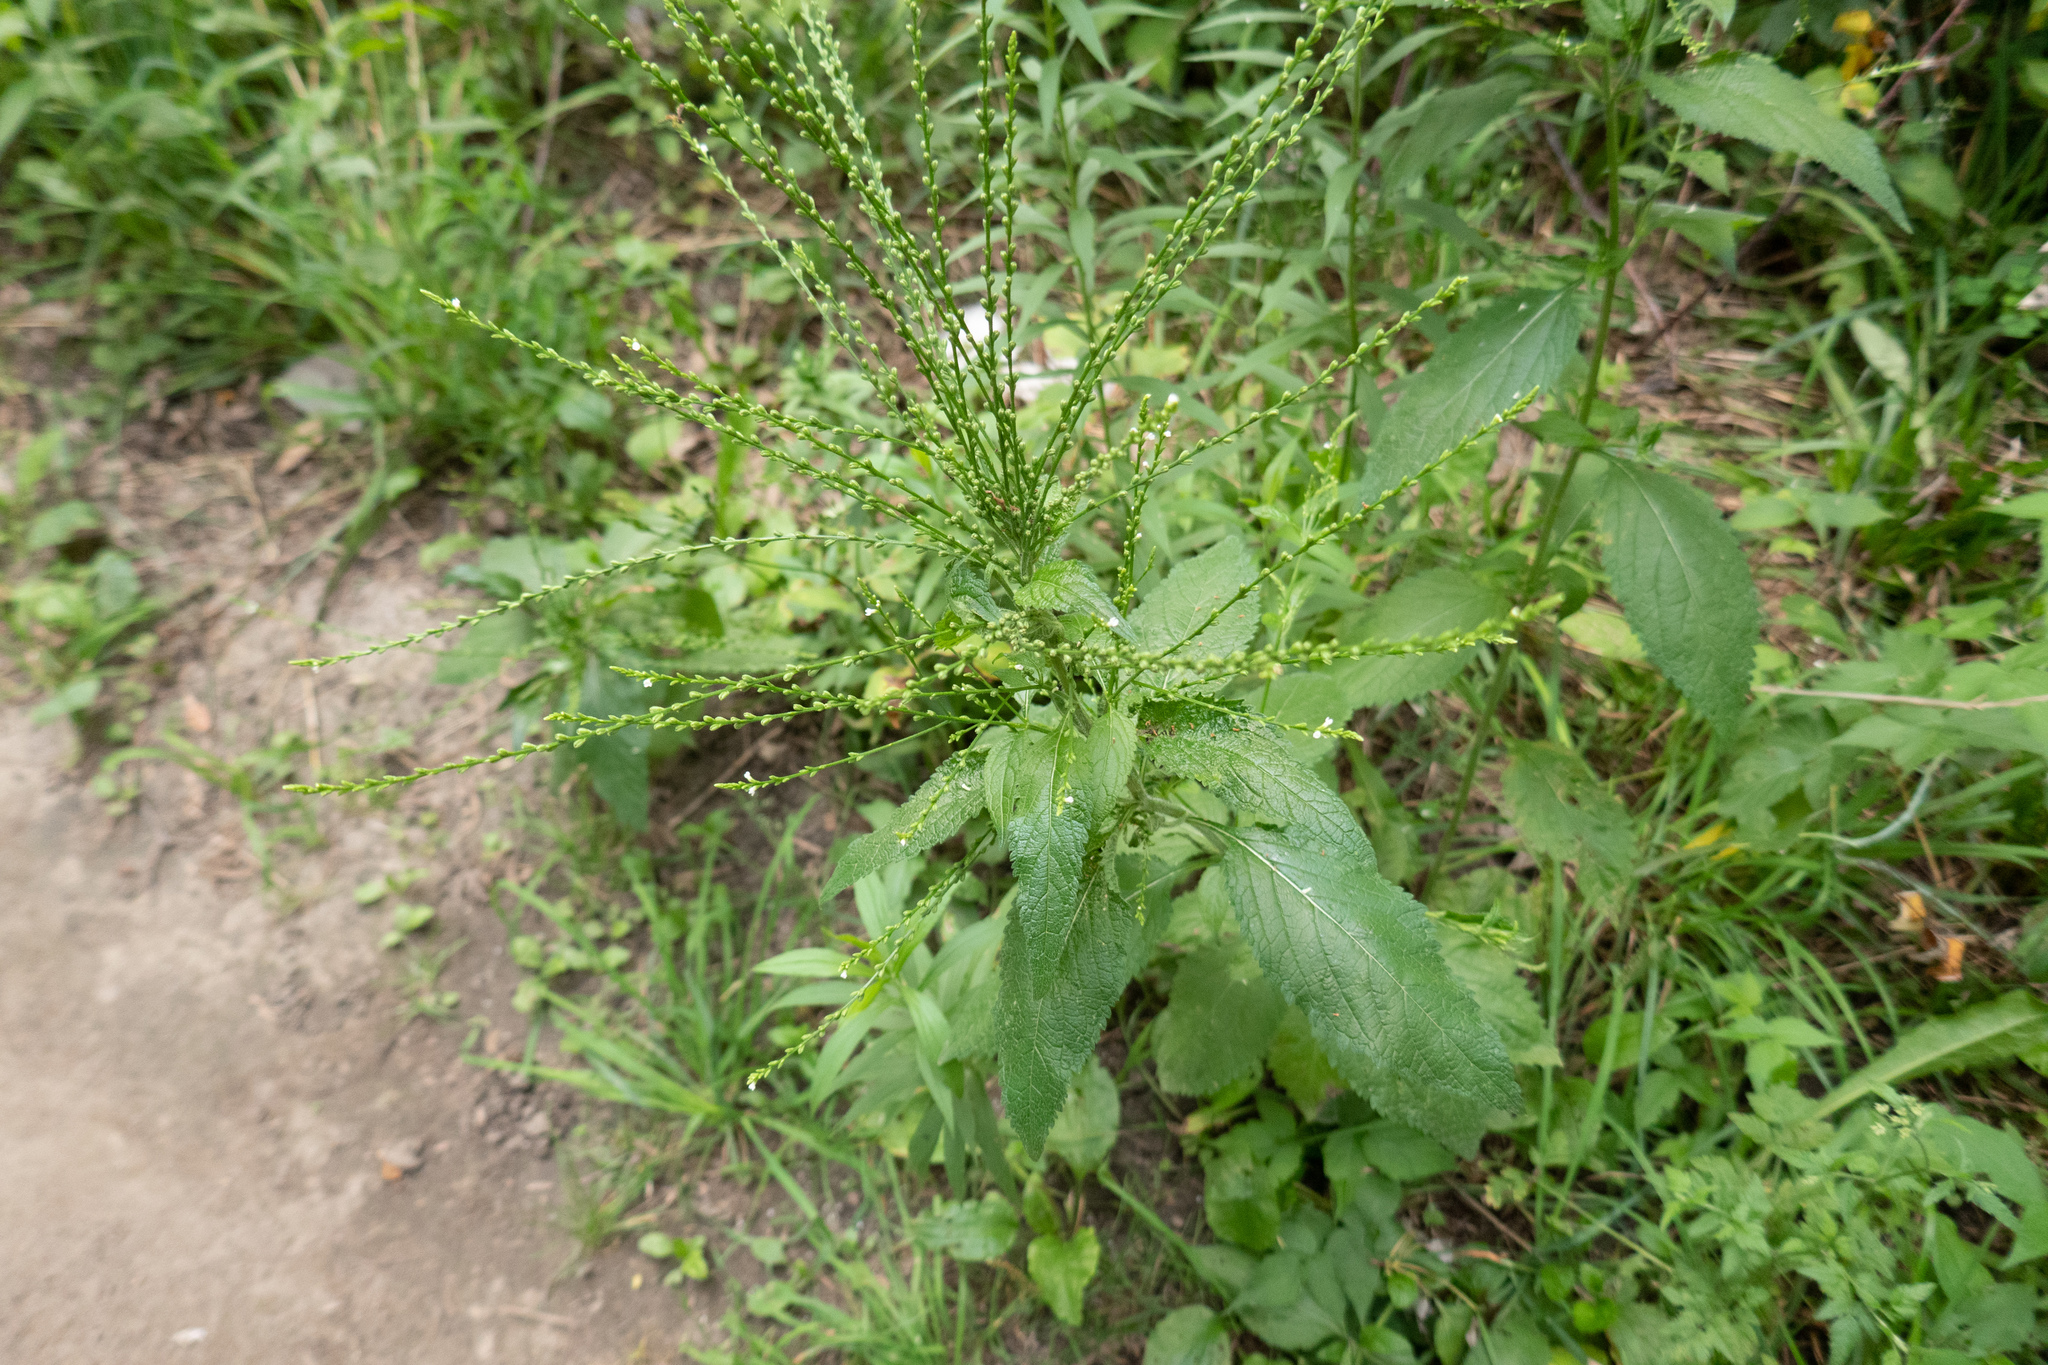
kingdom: Plantae
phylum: Tracheophyta
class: Magnoliopsida
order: Lamiales
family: Verbenaceae
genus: Verbena
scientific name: Verbena urticifolia
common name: Nettle-leaved vervain
